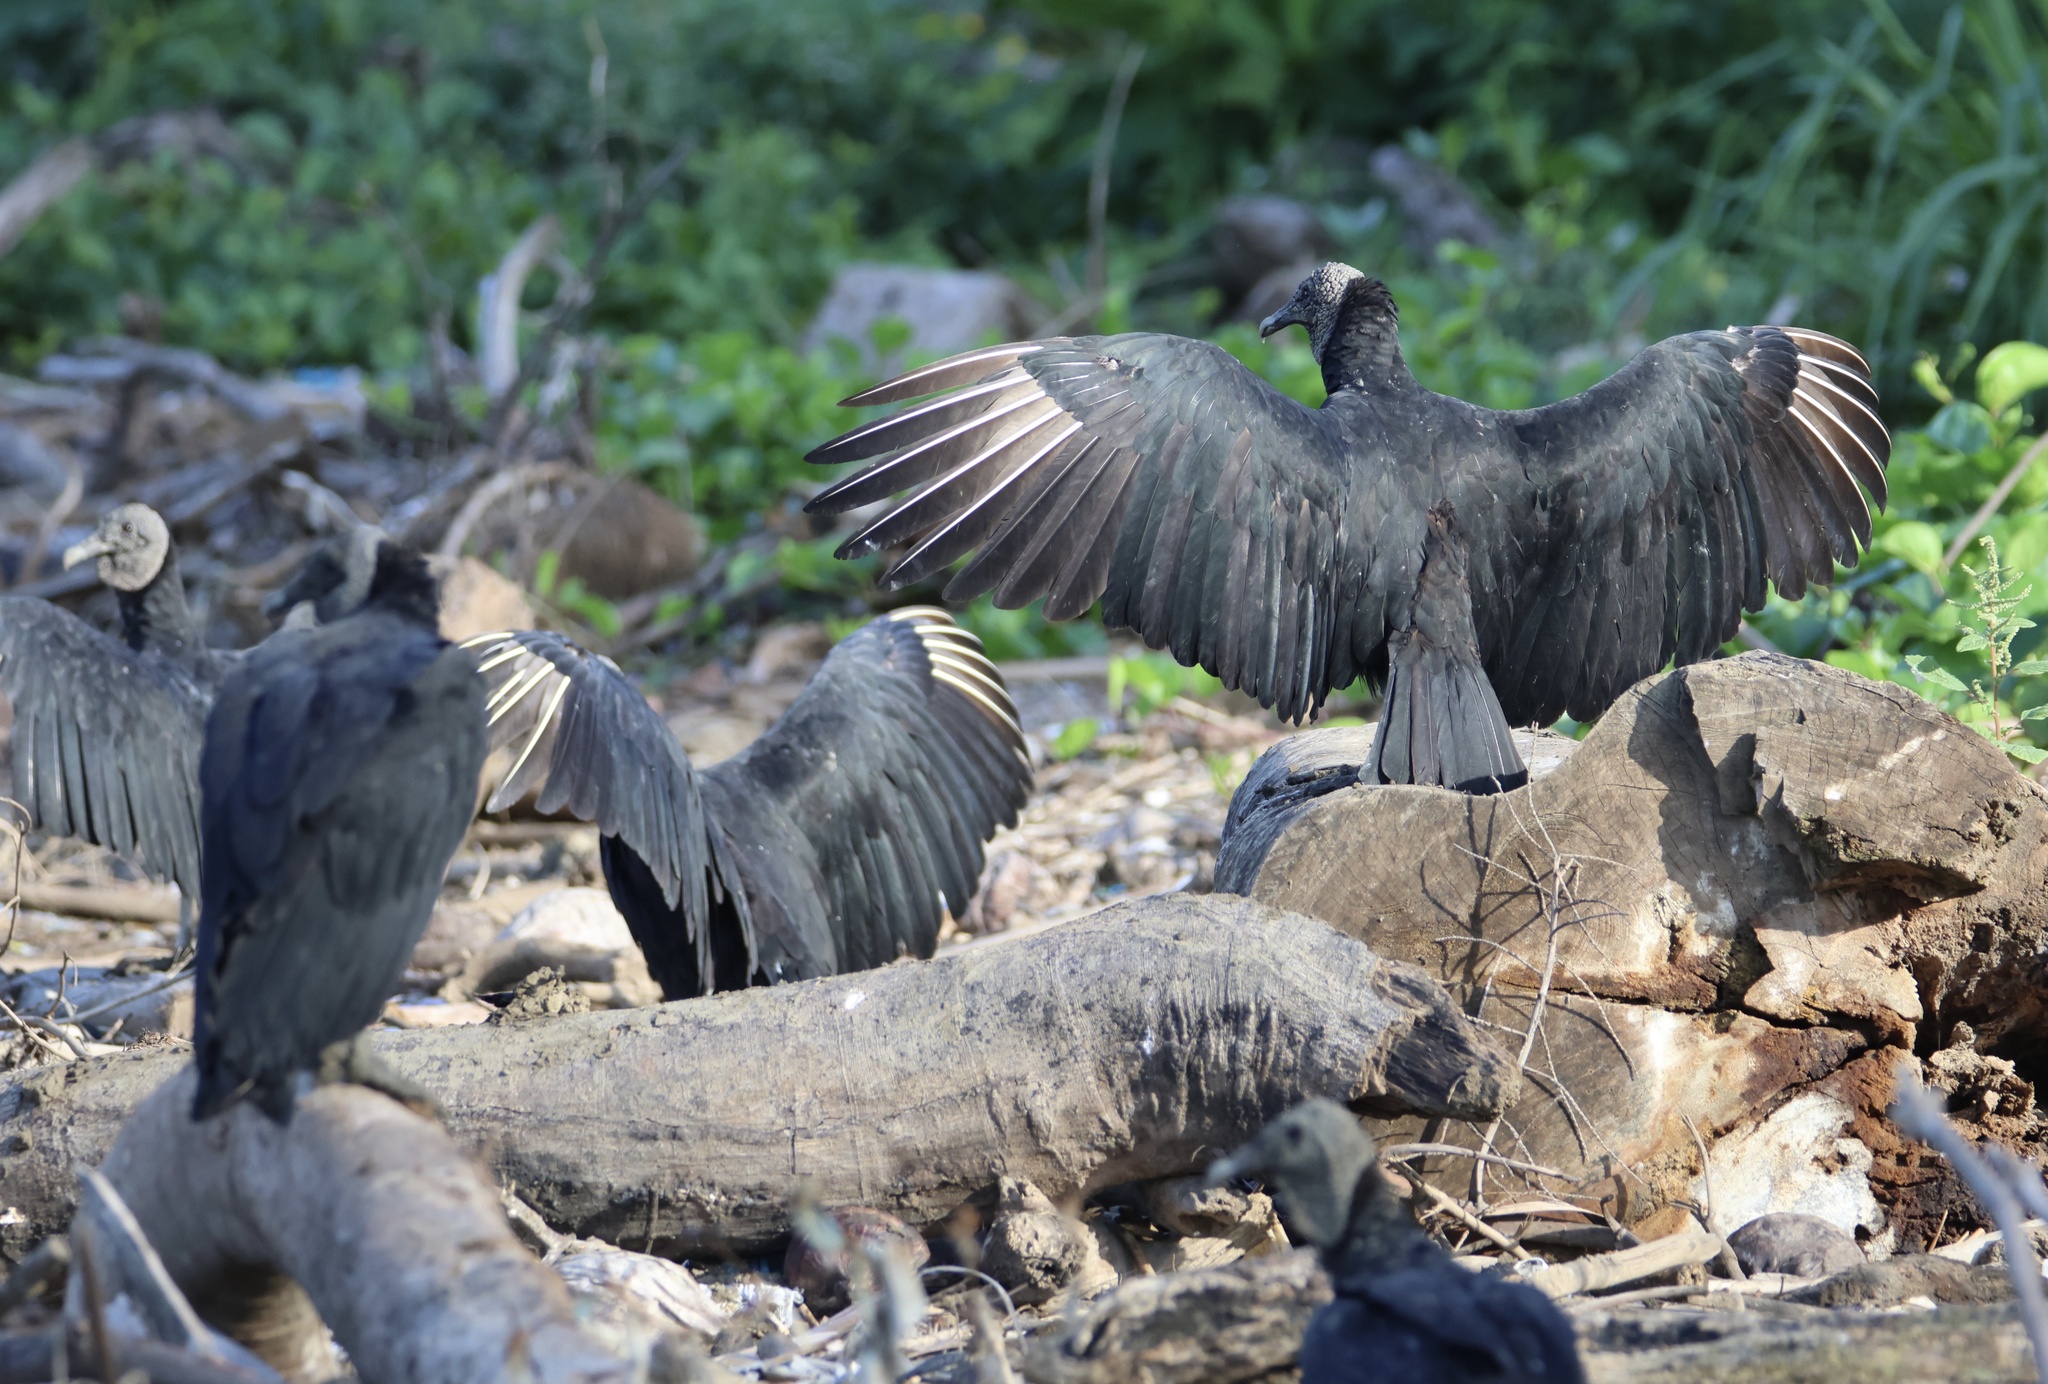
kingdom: Animalia
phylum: Chordata
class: Aves
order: Accipitriformes
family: Cathartidae
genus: Coragyps
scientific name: Coragyps atratus
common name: Black vulture
